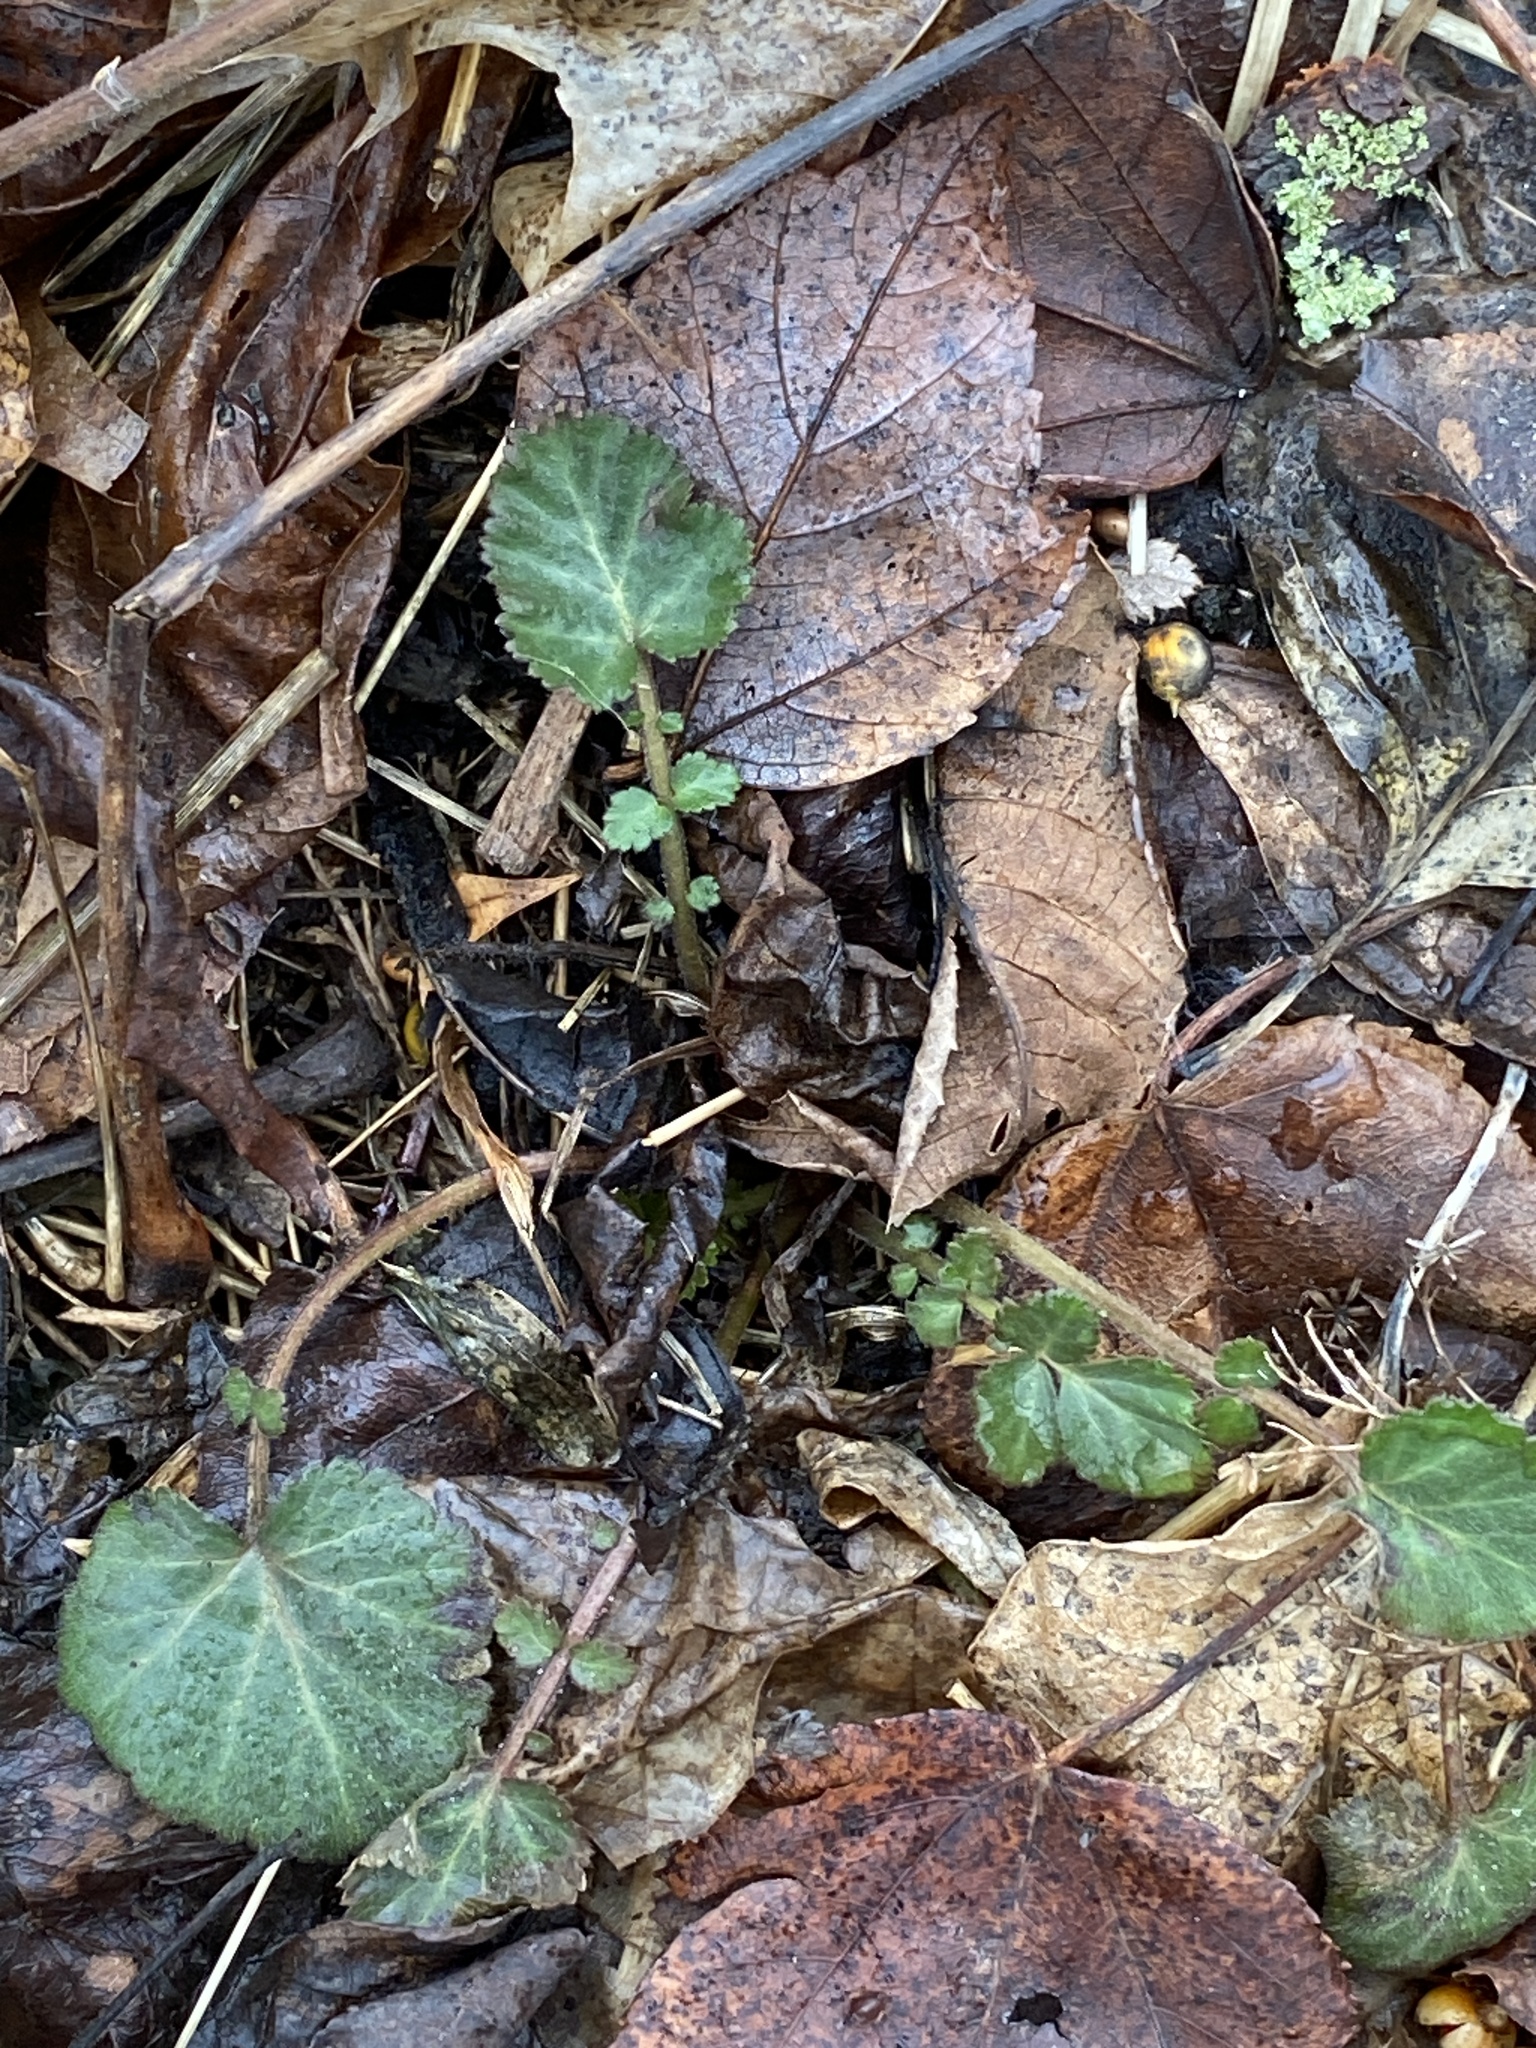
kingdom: Plantae
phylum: Tracheophyta
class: Magnoliopsida
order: Rosales
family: Rosaceae
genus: Geum
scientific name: Geum canadense
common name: White avens
